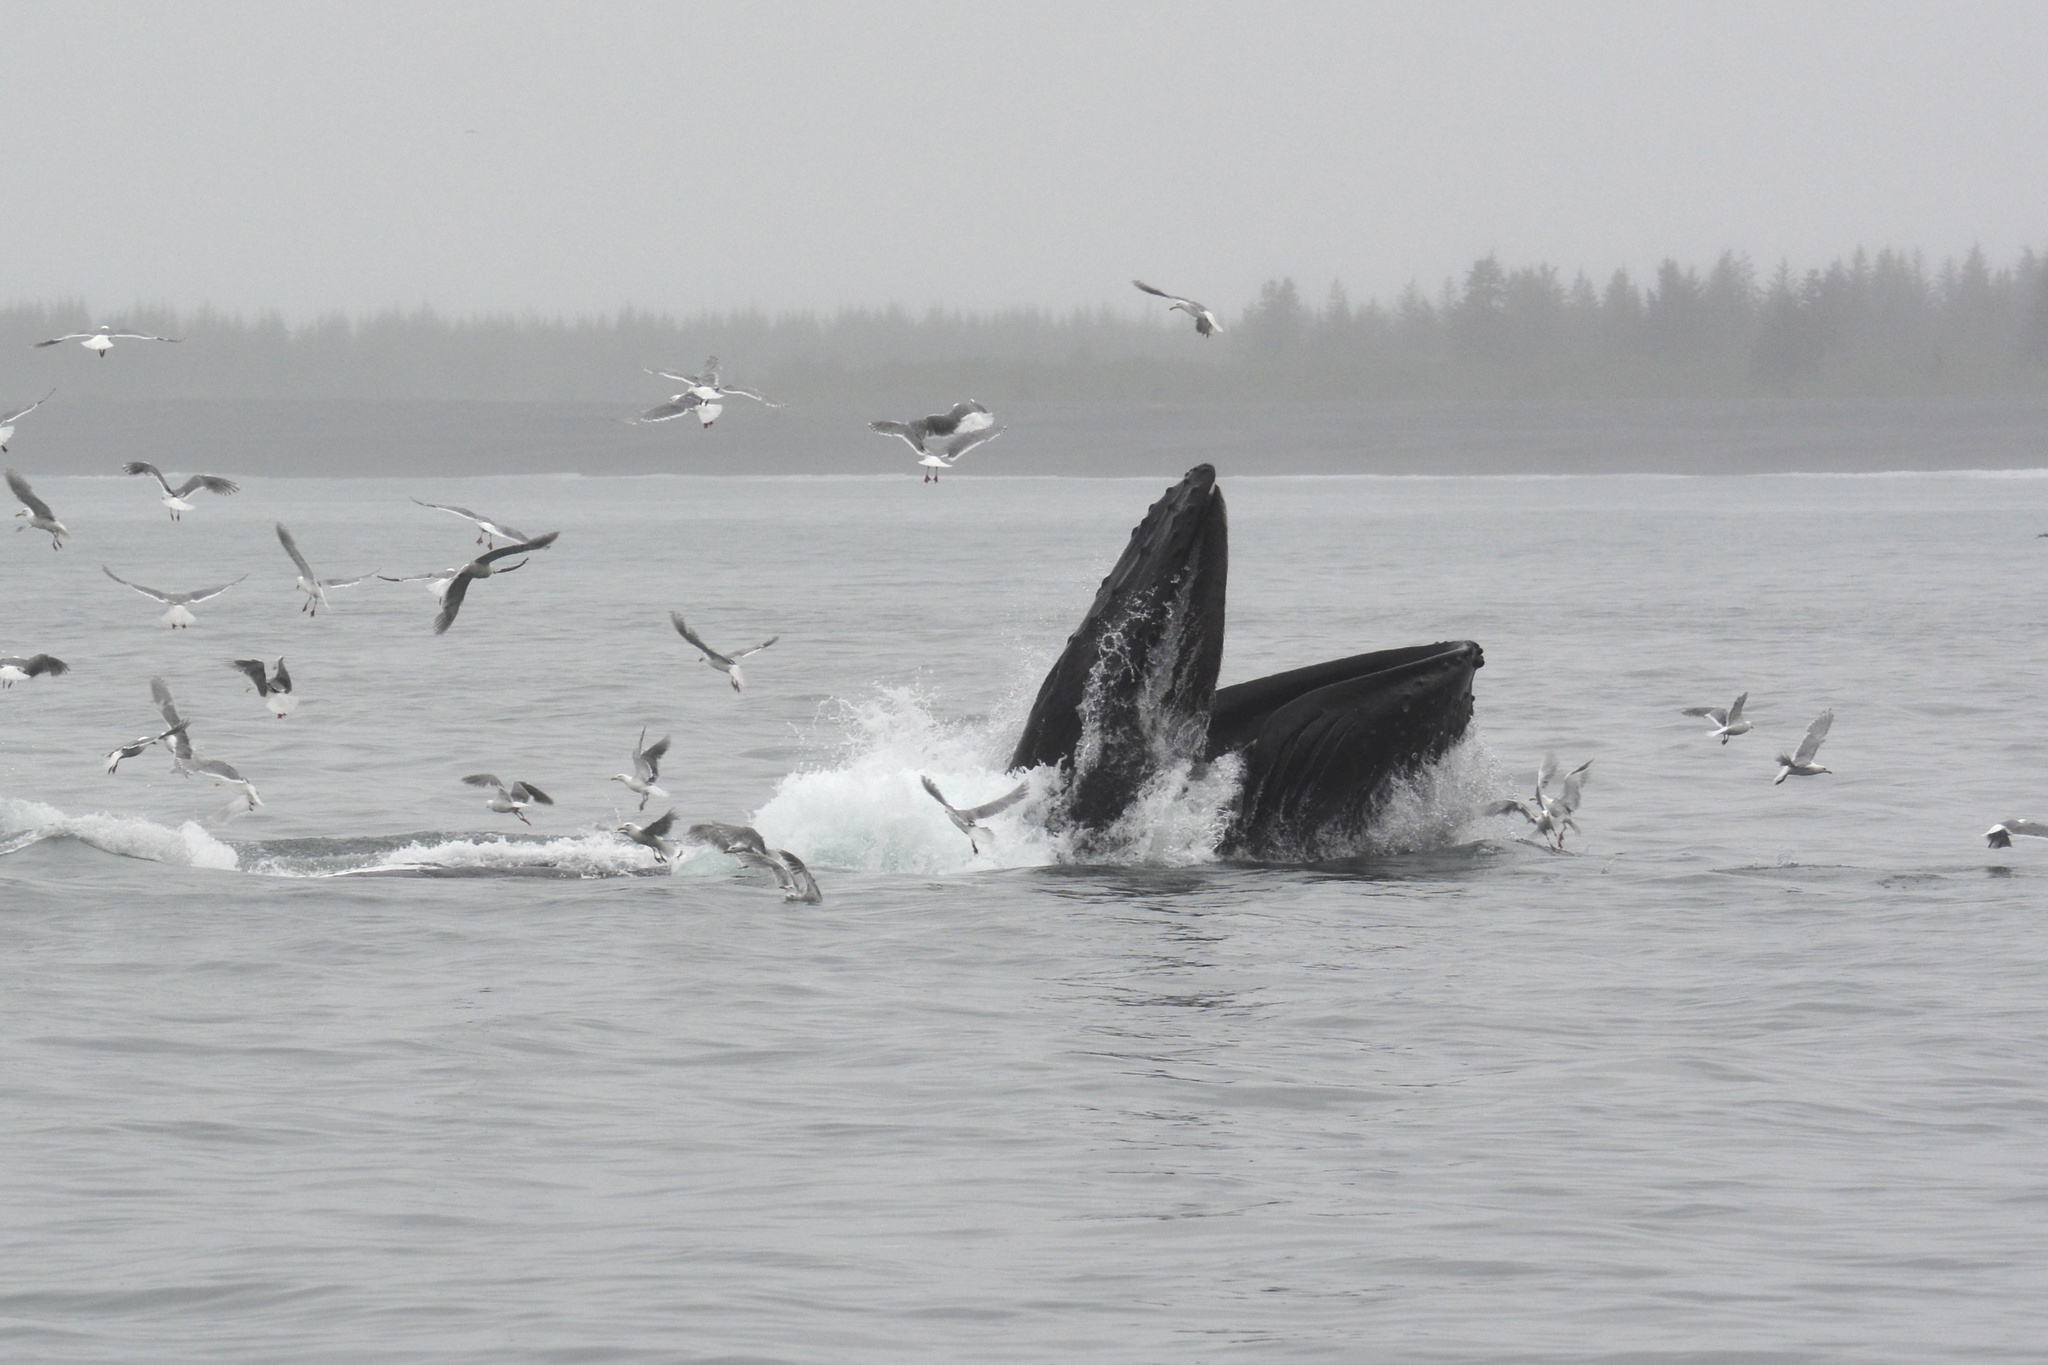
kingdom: Animalia
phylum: Chordata
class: Mammalia
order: Cetacea
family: Balaenopteridae
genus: Megaptera
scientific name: Megaptera novaeangliae
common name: Humpback whale
